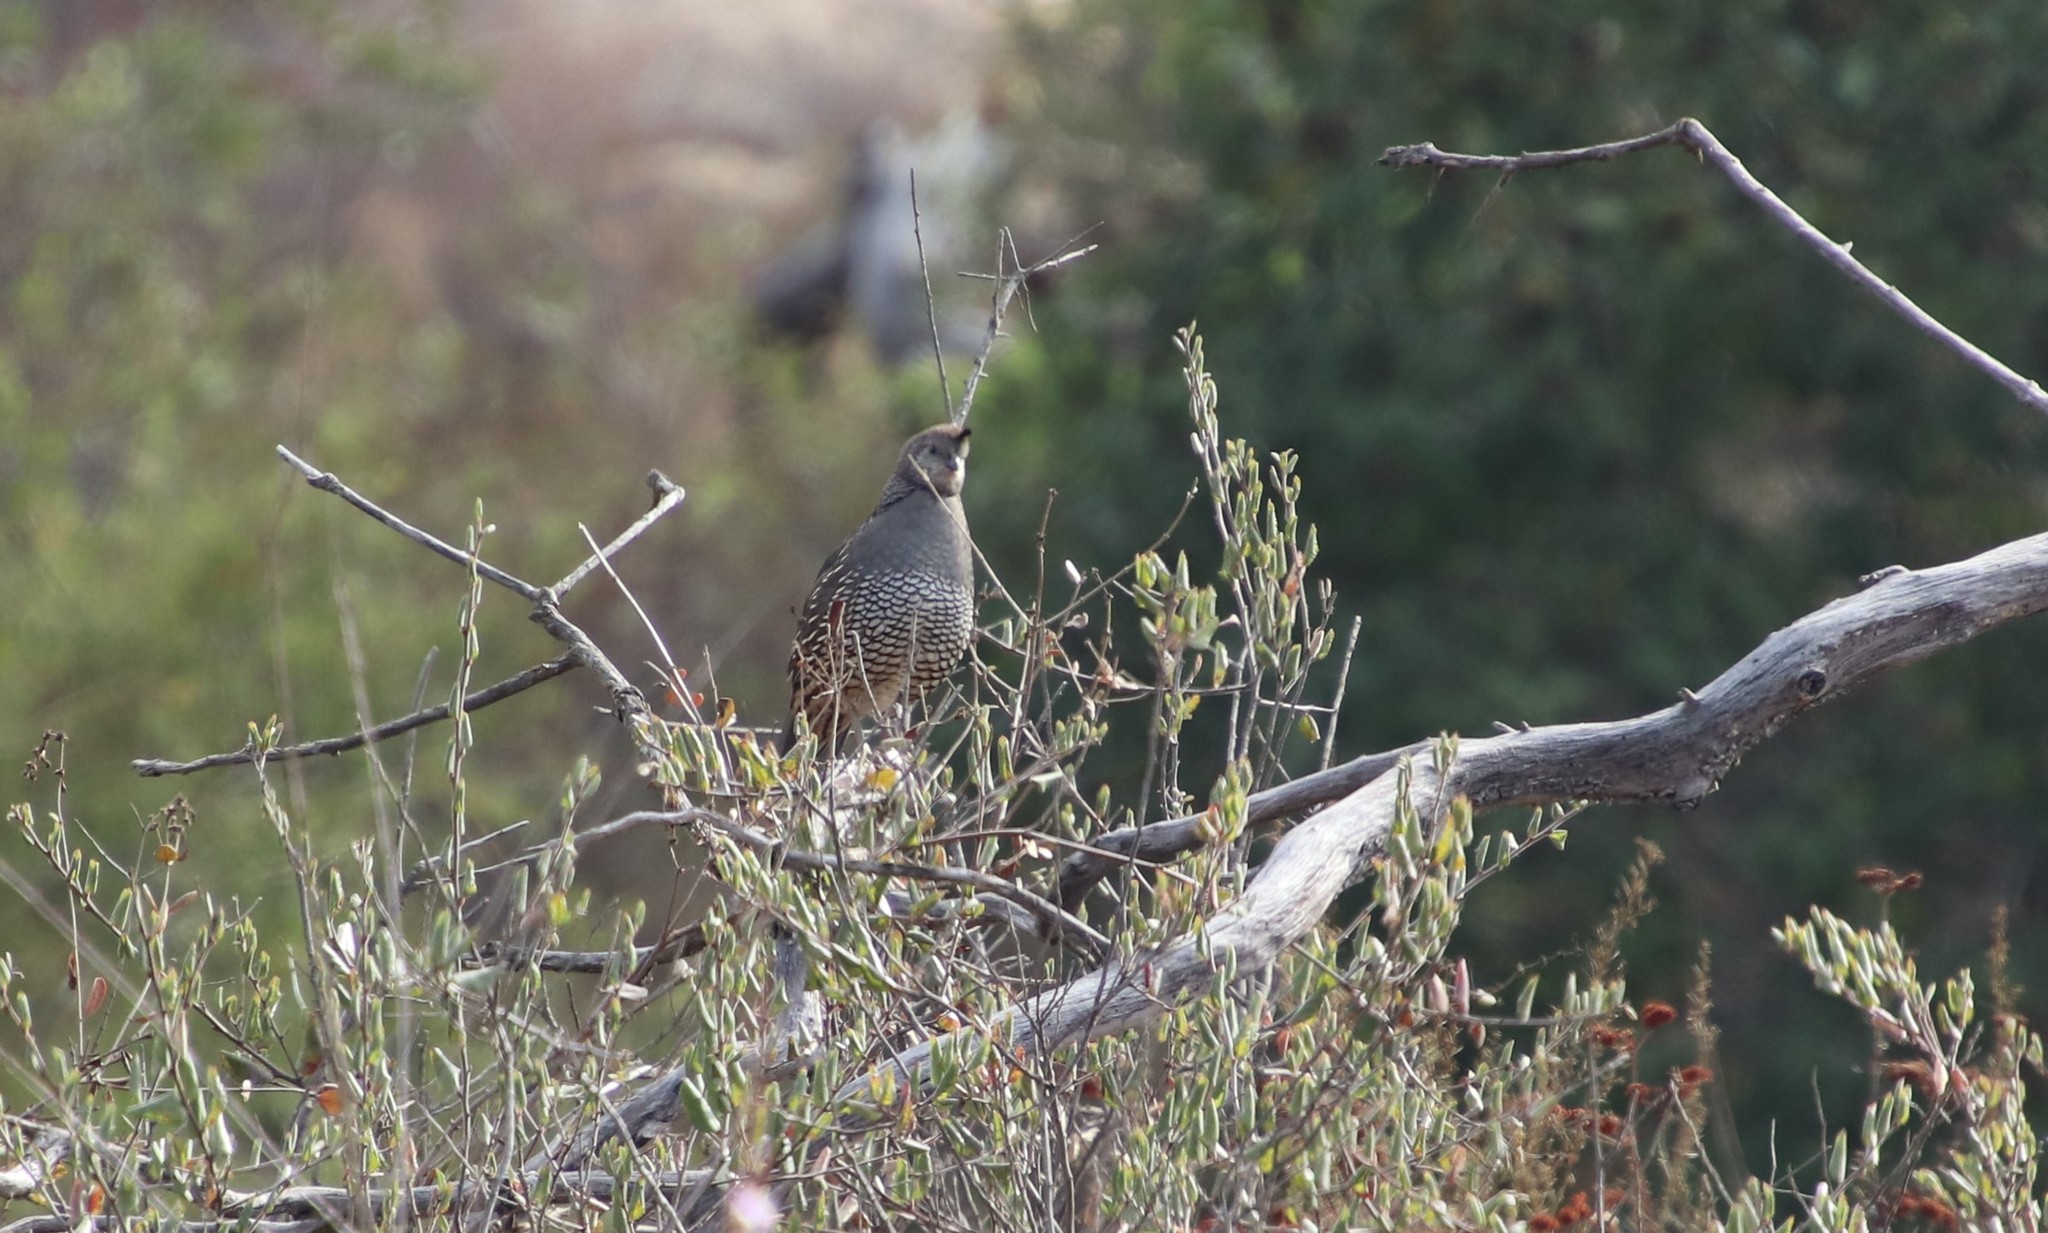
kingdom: Animalia
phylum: Chordata
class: Aves
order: Galliformes
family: Odontophoridae
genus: Callipepla
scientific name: Callipepla californica
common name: California quail
